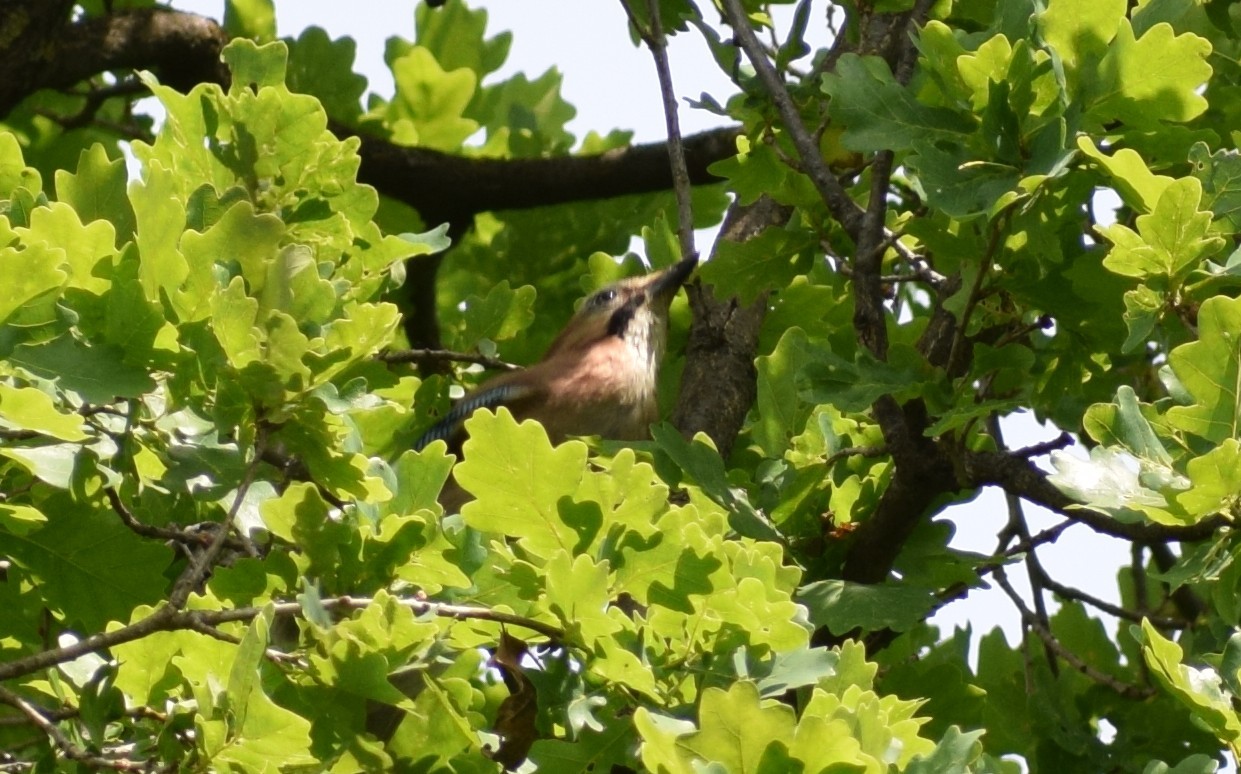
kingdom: Animalia
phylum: Chordata
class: Aves
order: Passeriformes
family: Corvidae
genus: Garrulus
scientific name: Garrulus glandarius
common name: Eurasian jay
